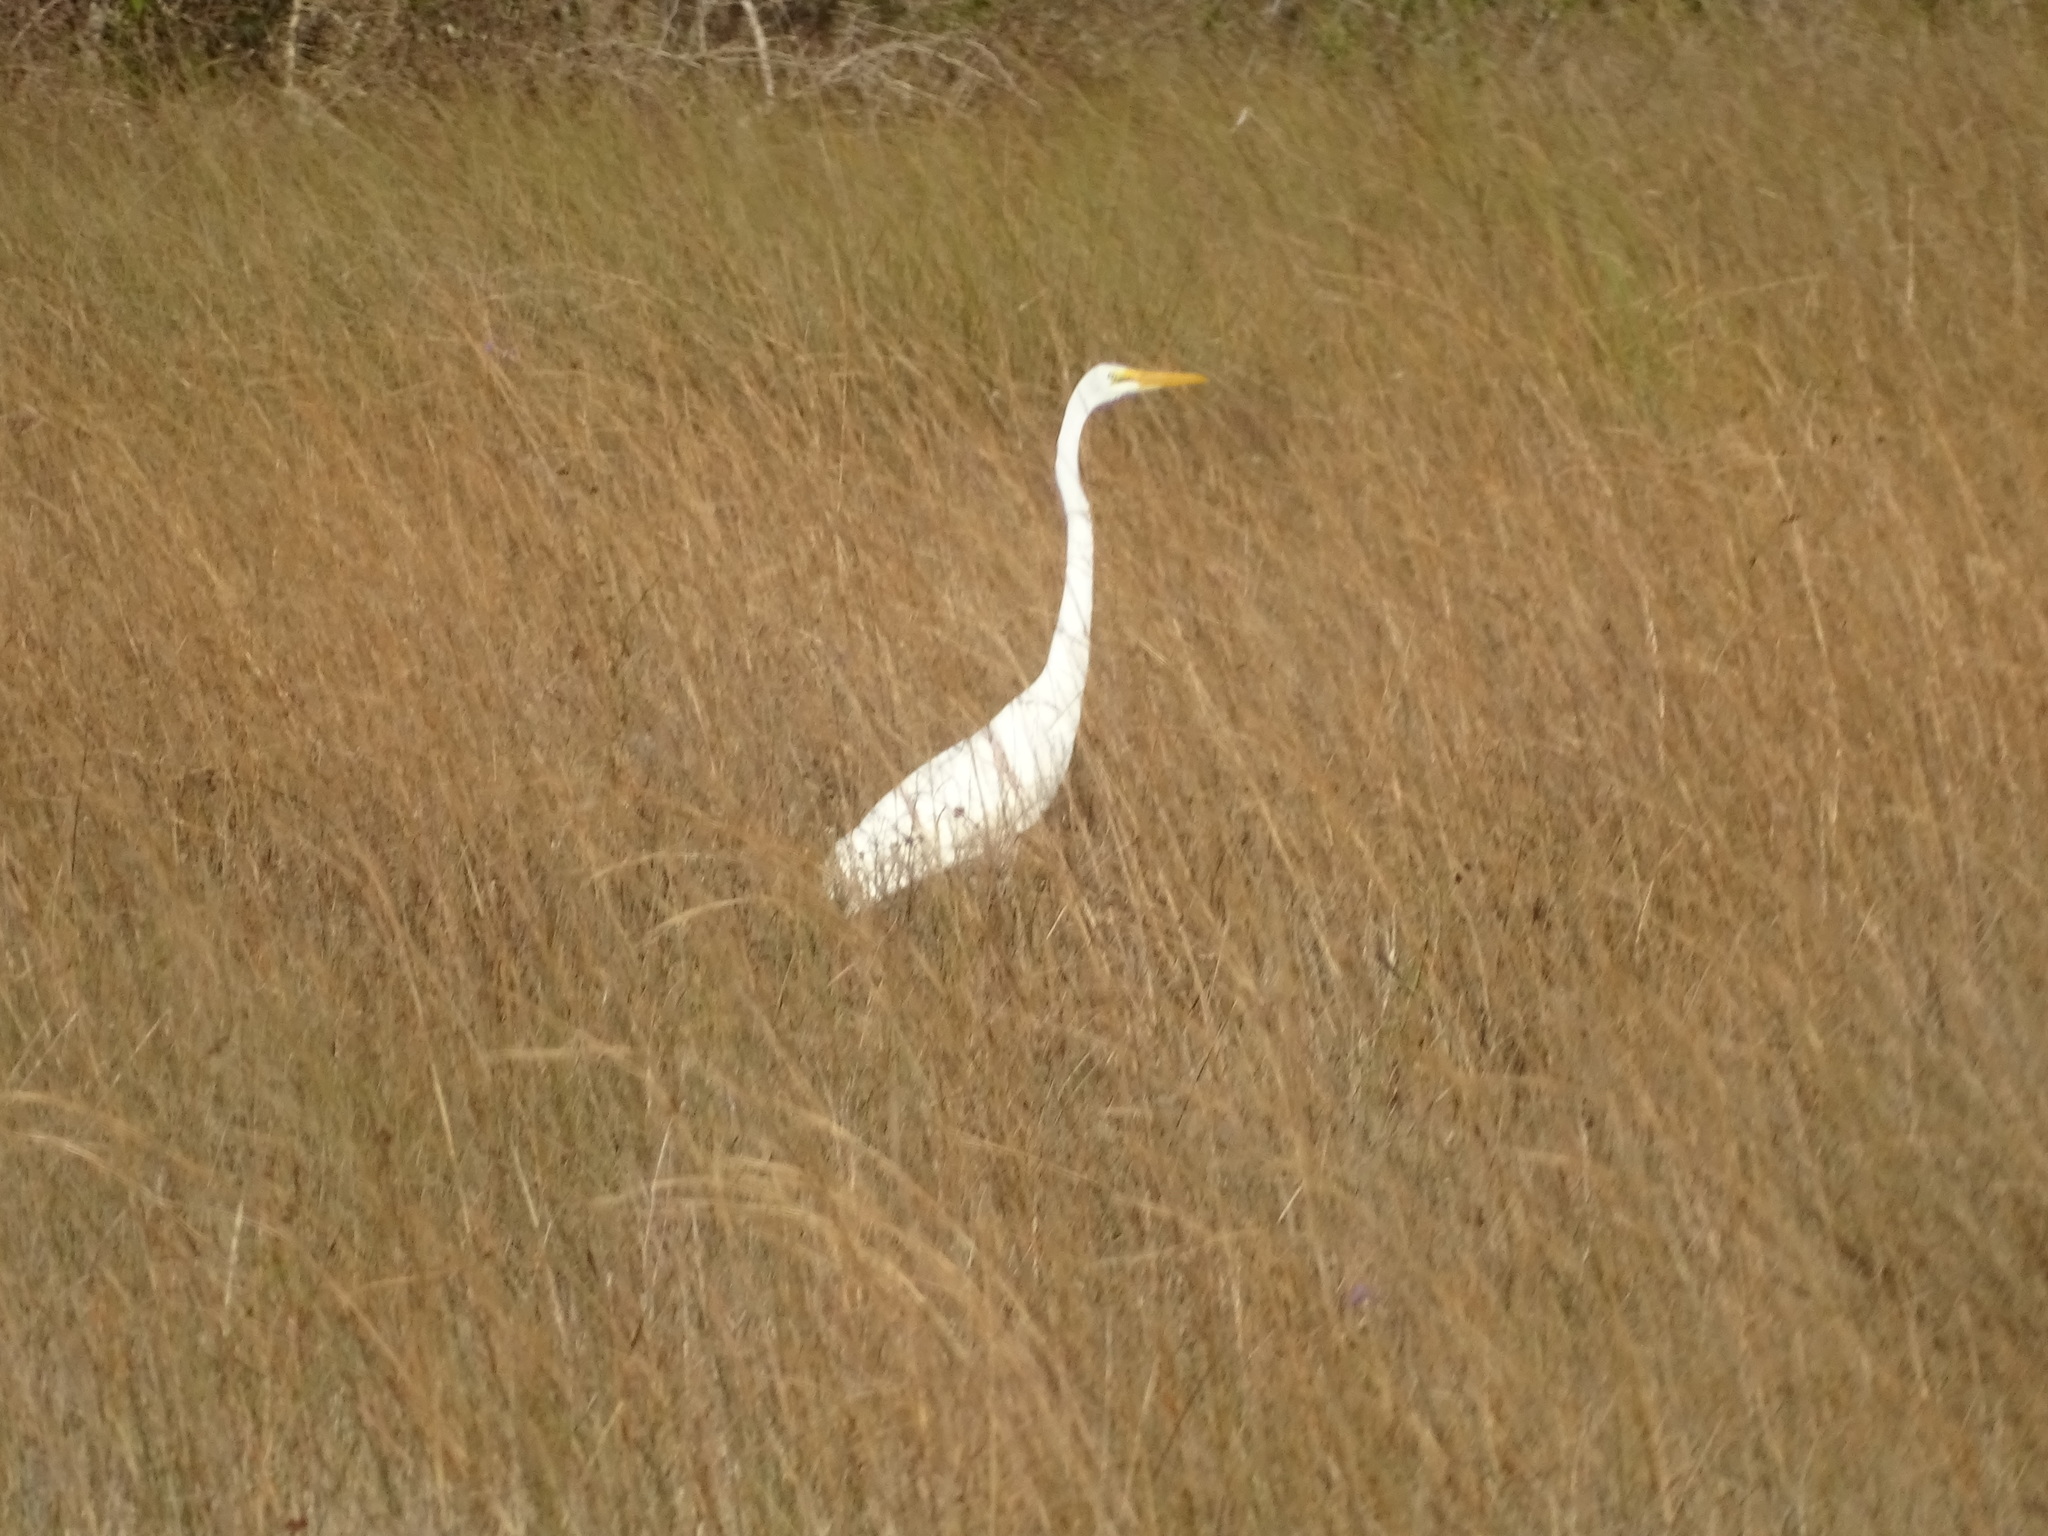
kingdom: Animalia
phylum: Chordata
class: Aves
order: Pelecaniformes
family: Ardeidae
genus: Ardea
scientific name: Ardea alba
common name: Great egret
